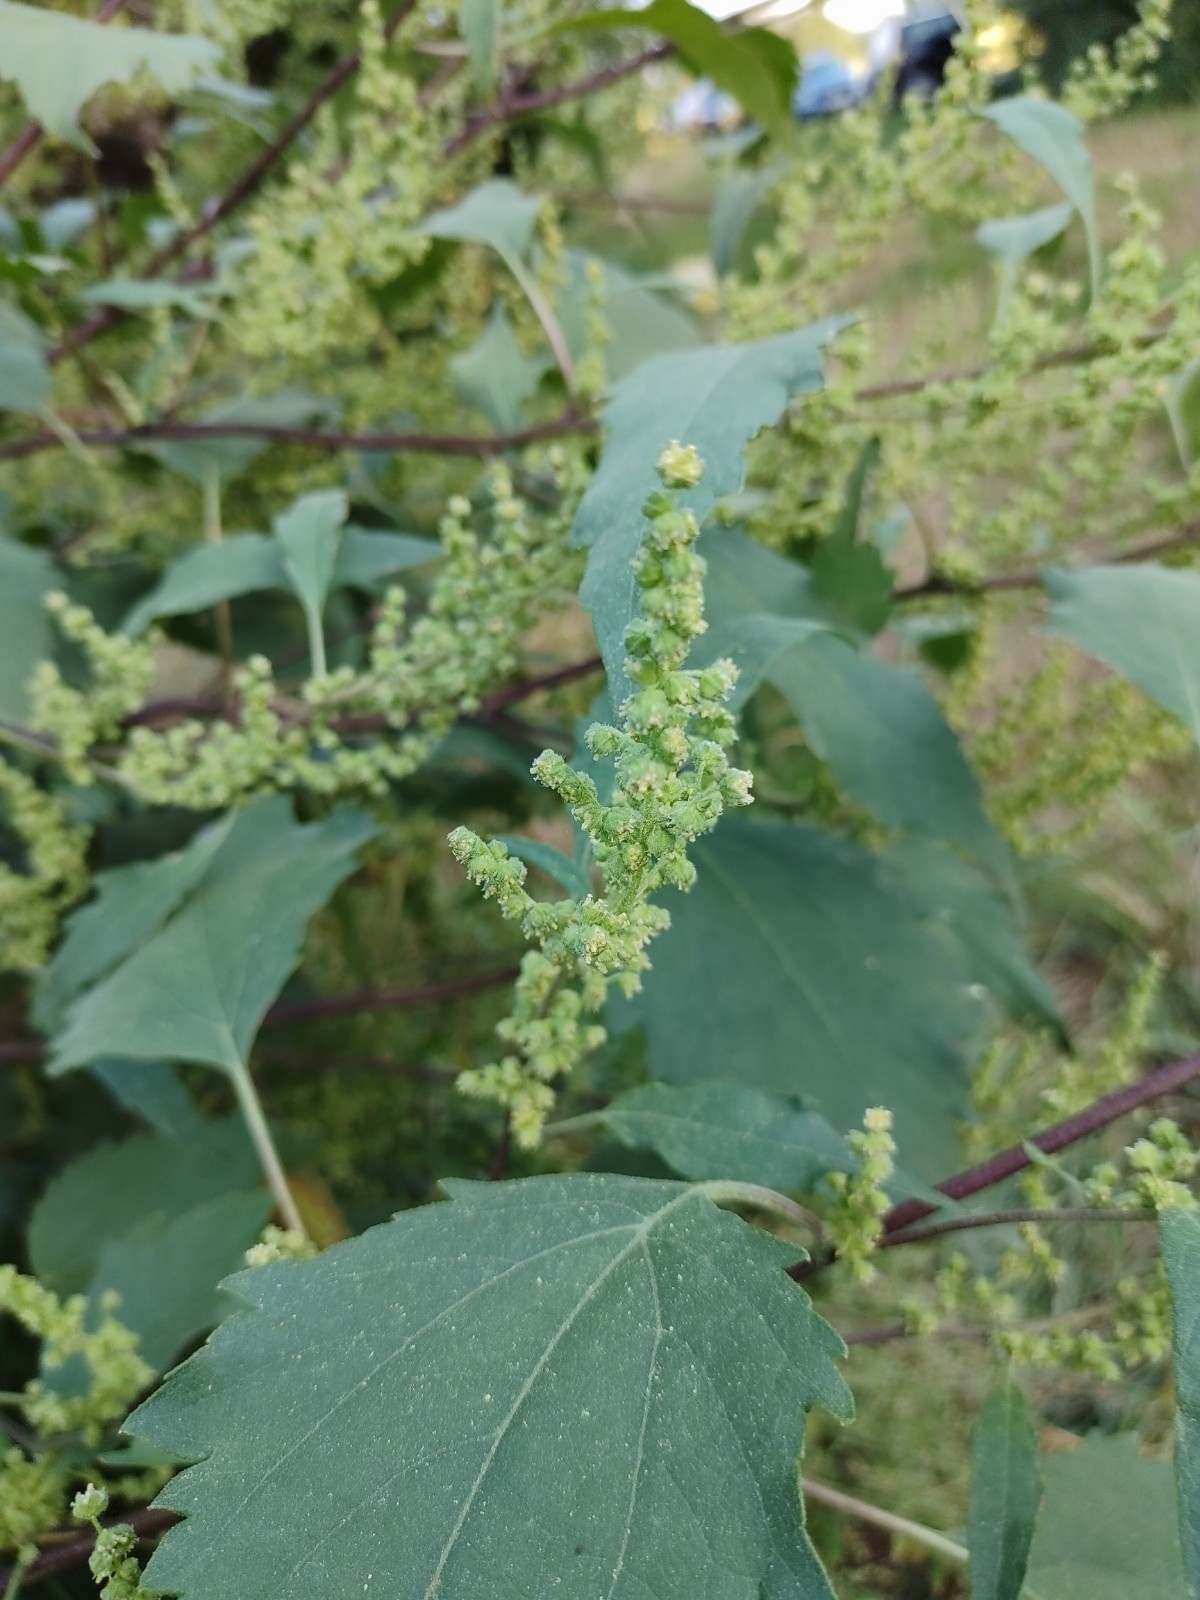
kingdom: Plantae
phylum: Tracheophyta
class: Magnoliopsida
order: Asterales
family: Asteraceae
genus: Cyclachaena
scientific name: Cyclachaena xanthiifolia
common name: Giant sumpweed
